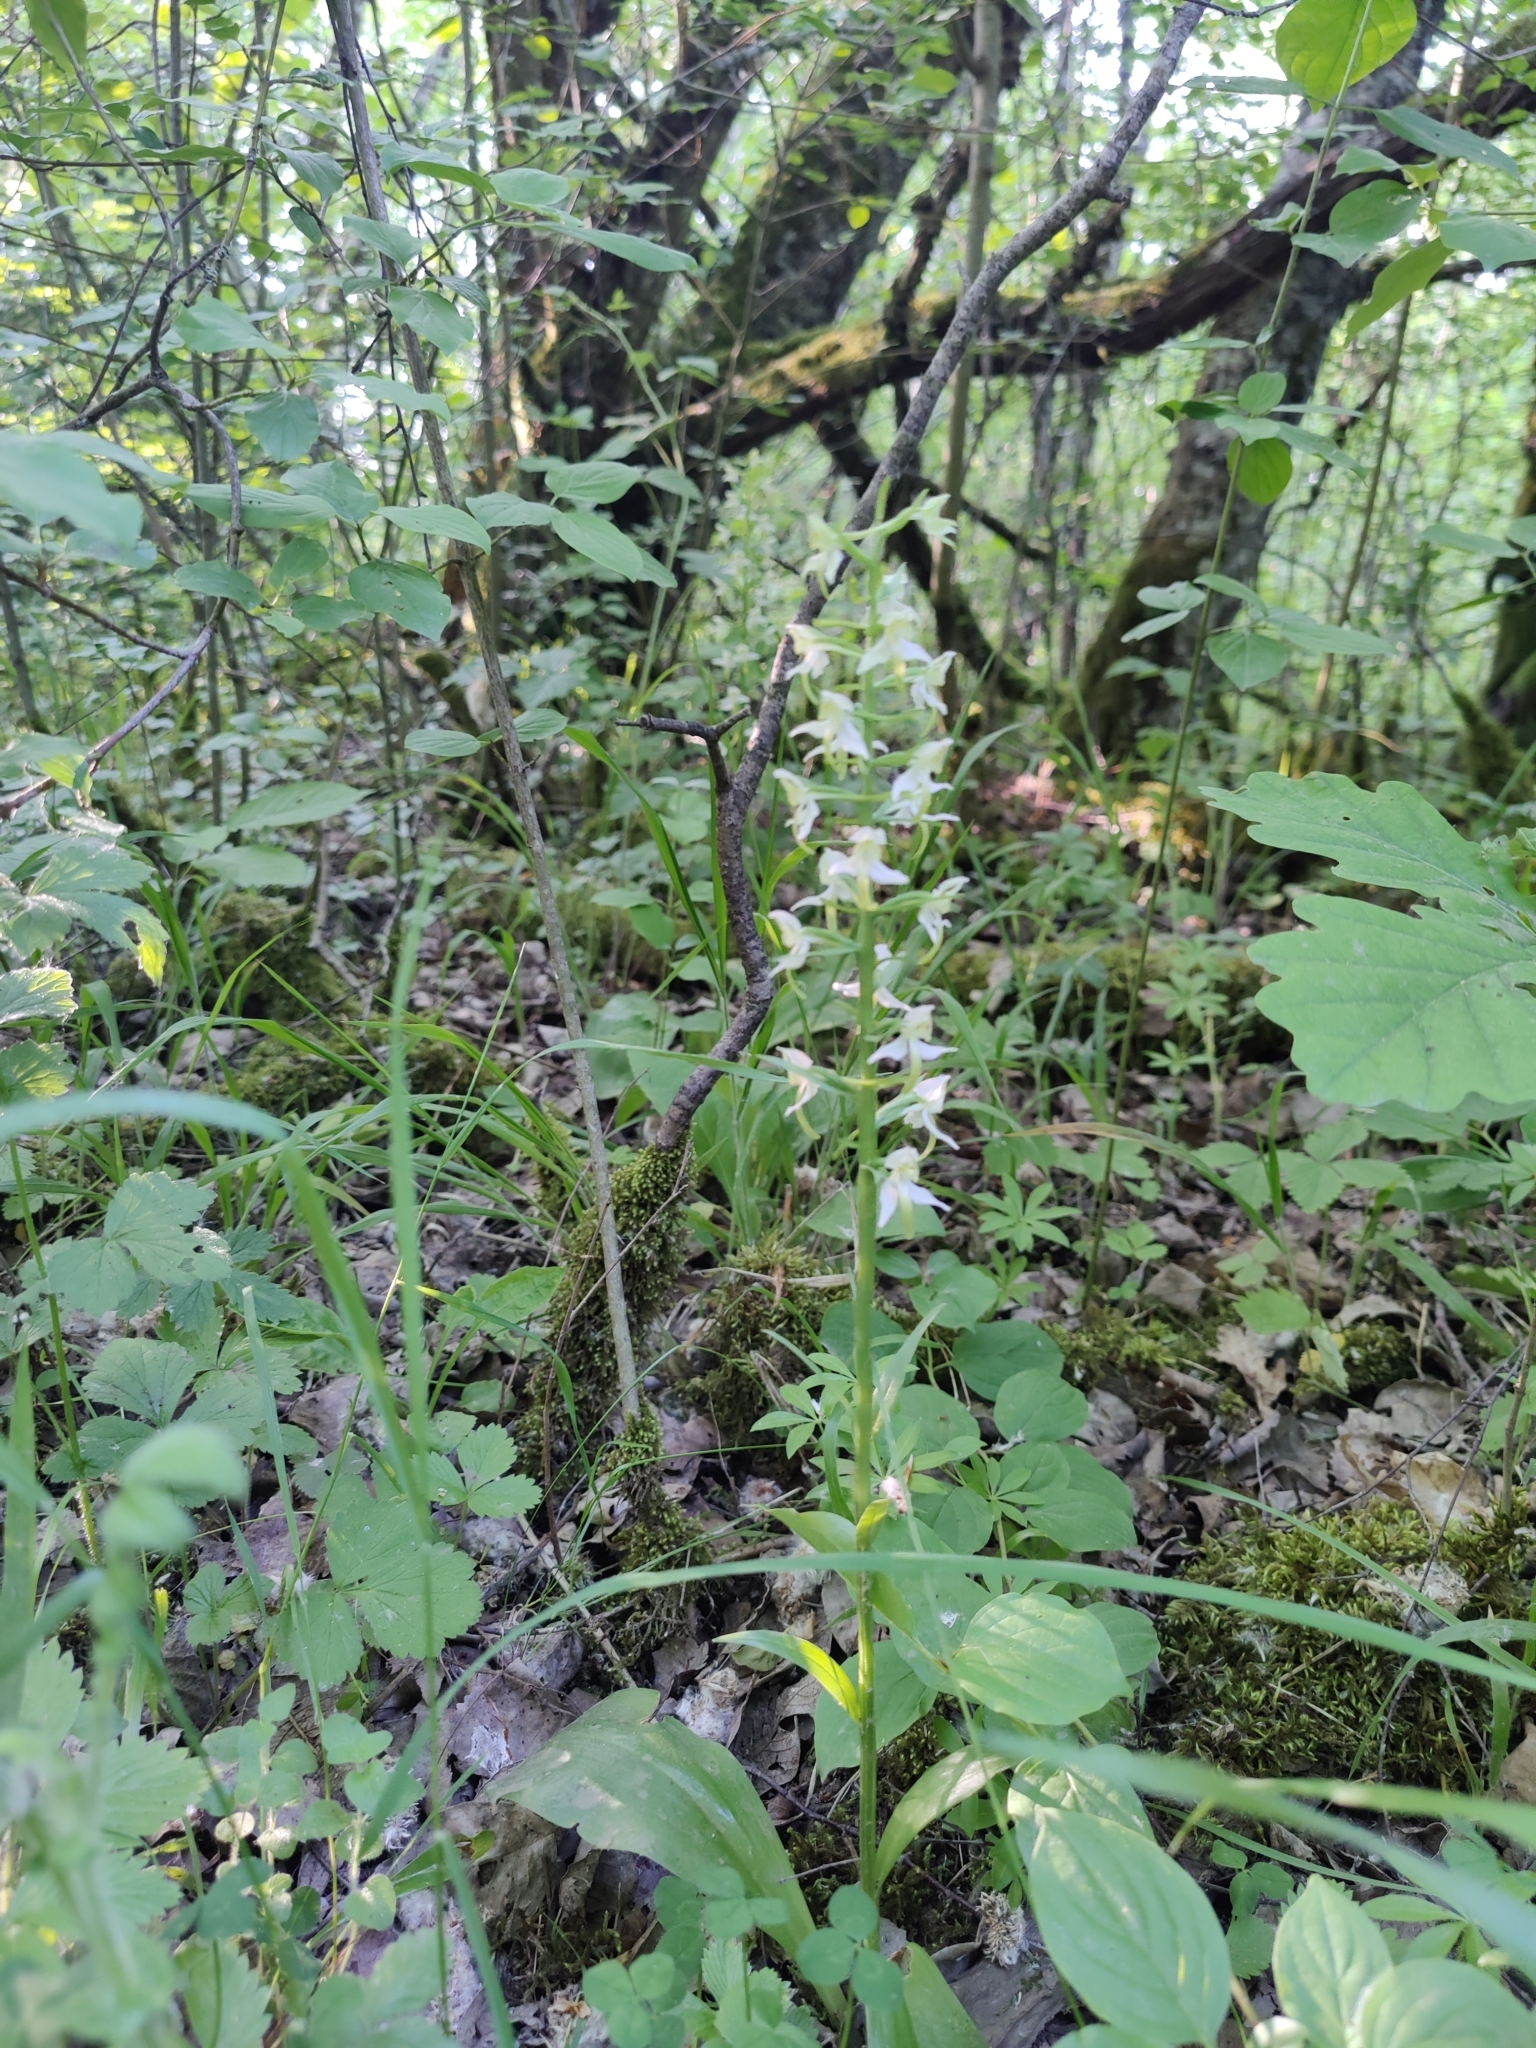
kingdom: Plantae
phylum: Tracheophyta
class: Liliopsida
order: Asparagales
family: Orchidaceae
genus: Platanthera
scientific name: Platanthera chlorantha
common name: Greater butterfly-orchid
